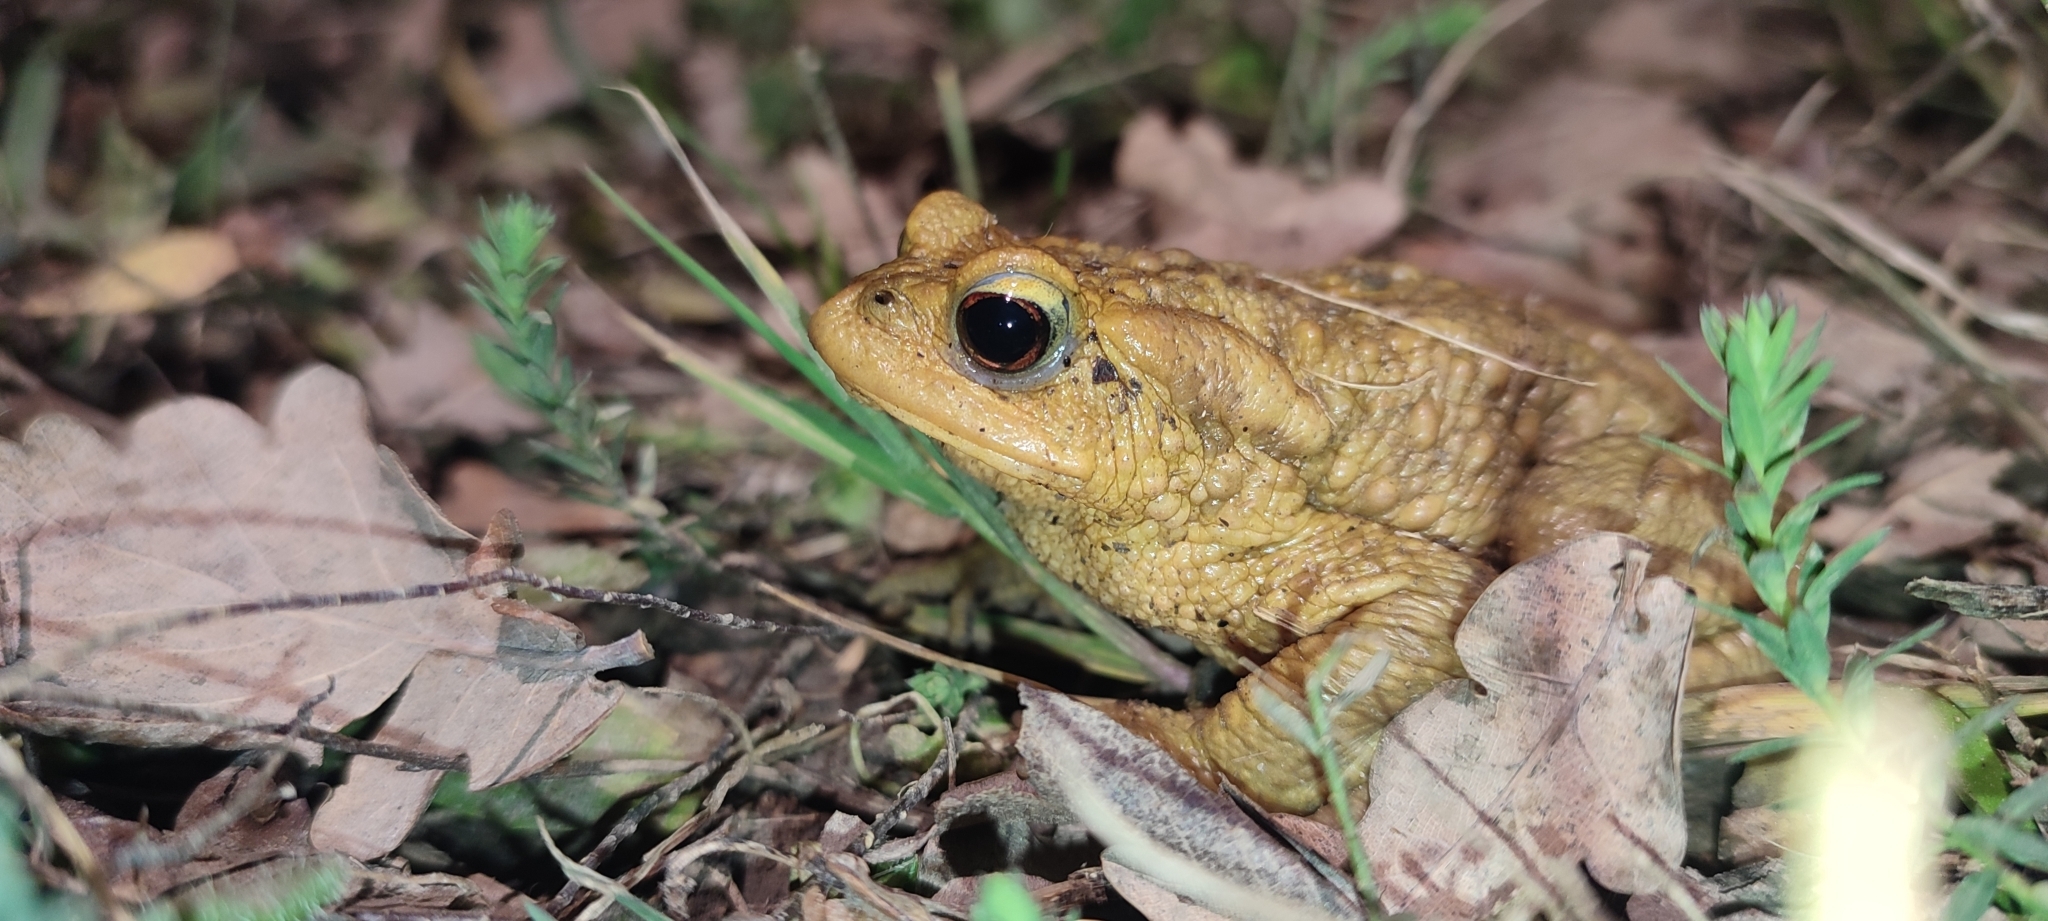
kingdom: Animalia
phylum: Chordata
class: Amphibia
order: Anura
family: Bufonidae
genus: Bufo
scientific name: Bufo spinosus
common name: Western common toad
